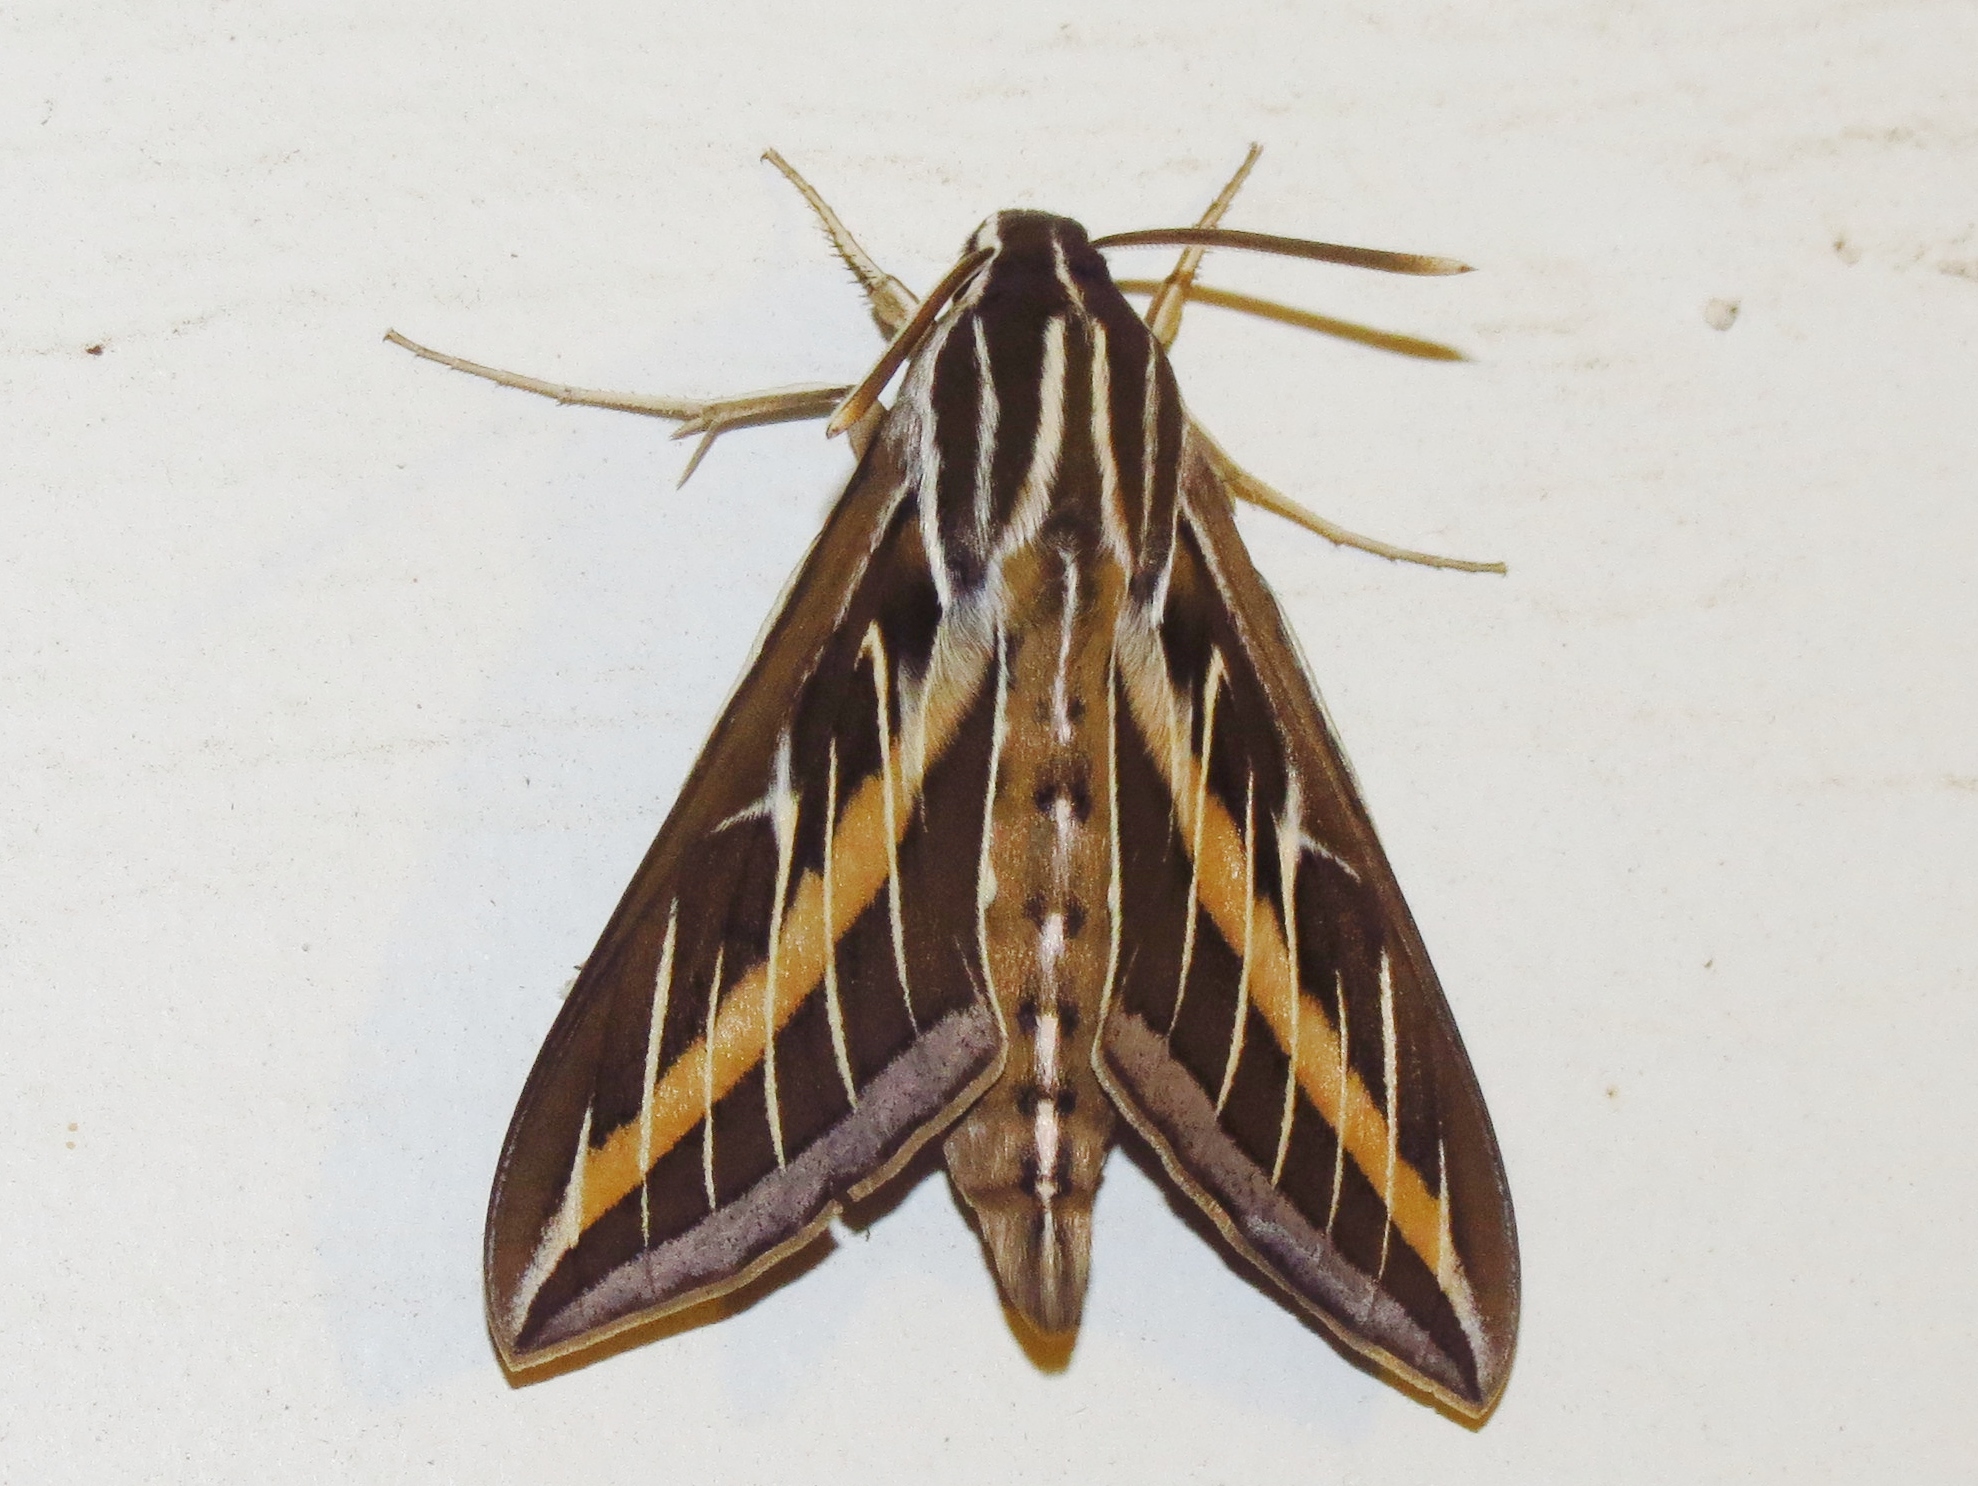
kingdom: Animalia
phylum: Arthropoda
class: Insecta
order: Lepidoptera
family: Sphingidae
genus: Hyles
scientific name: Hyles lineata
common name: White-lined sphinx
